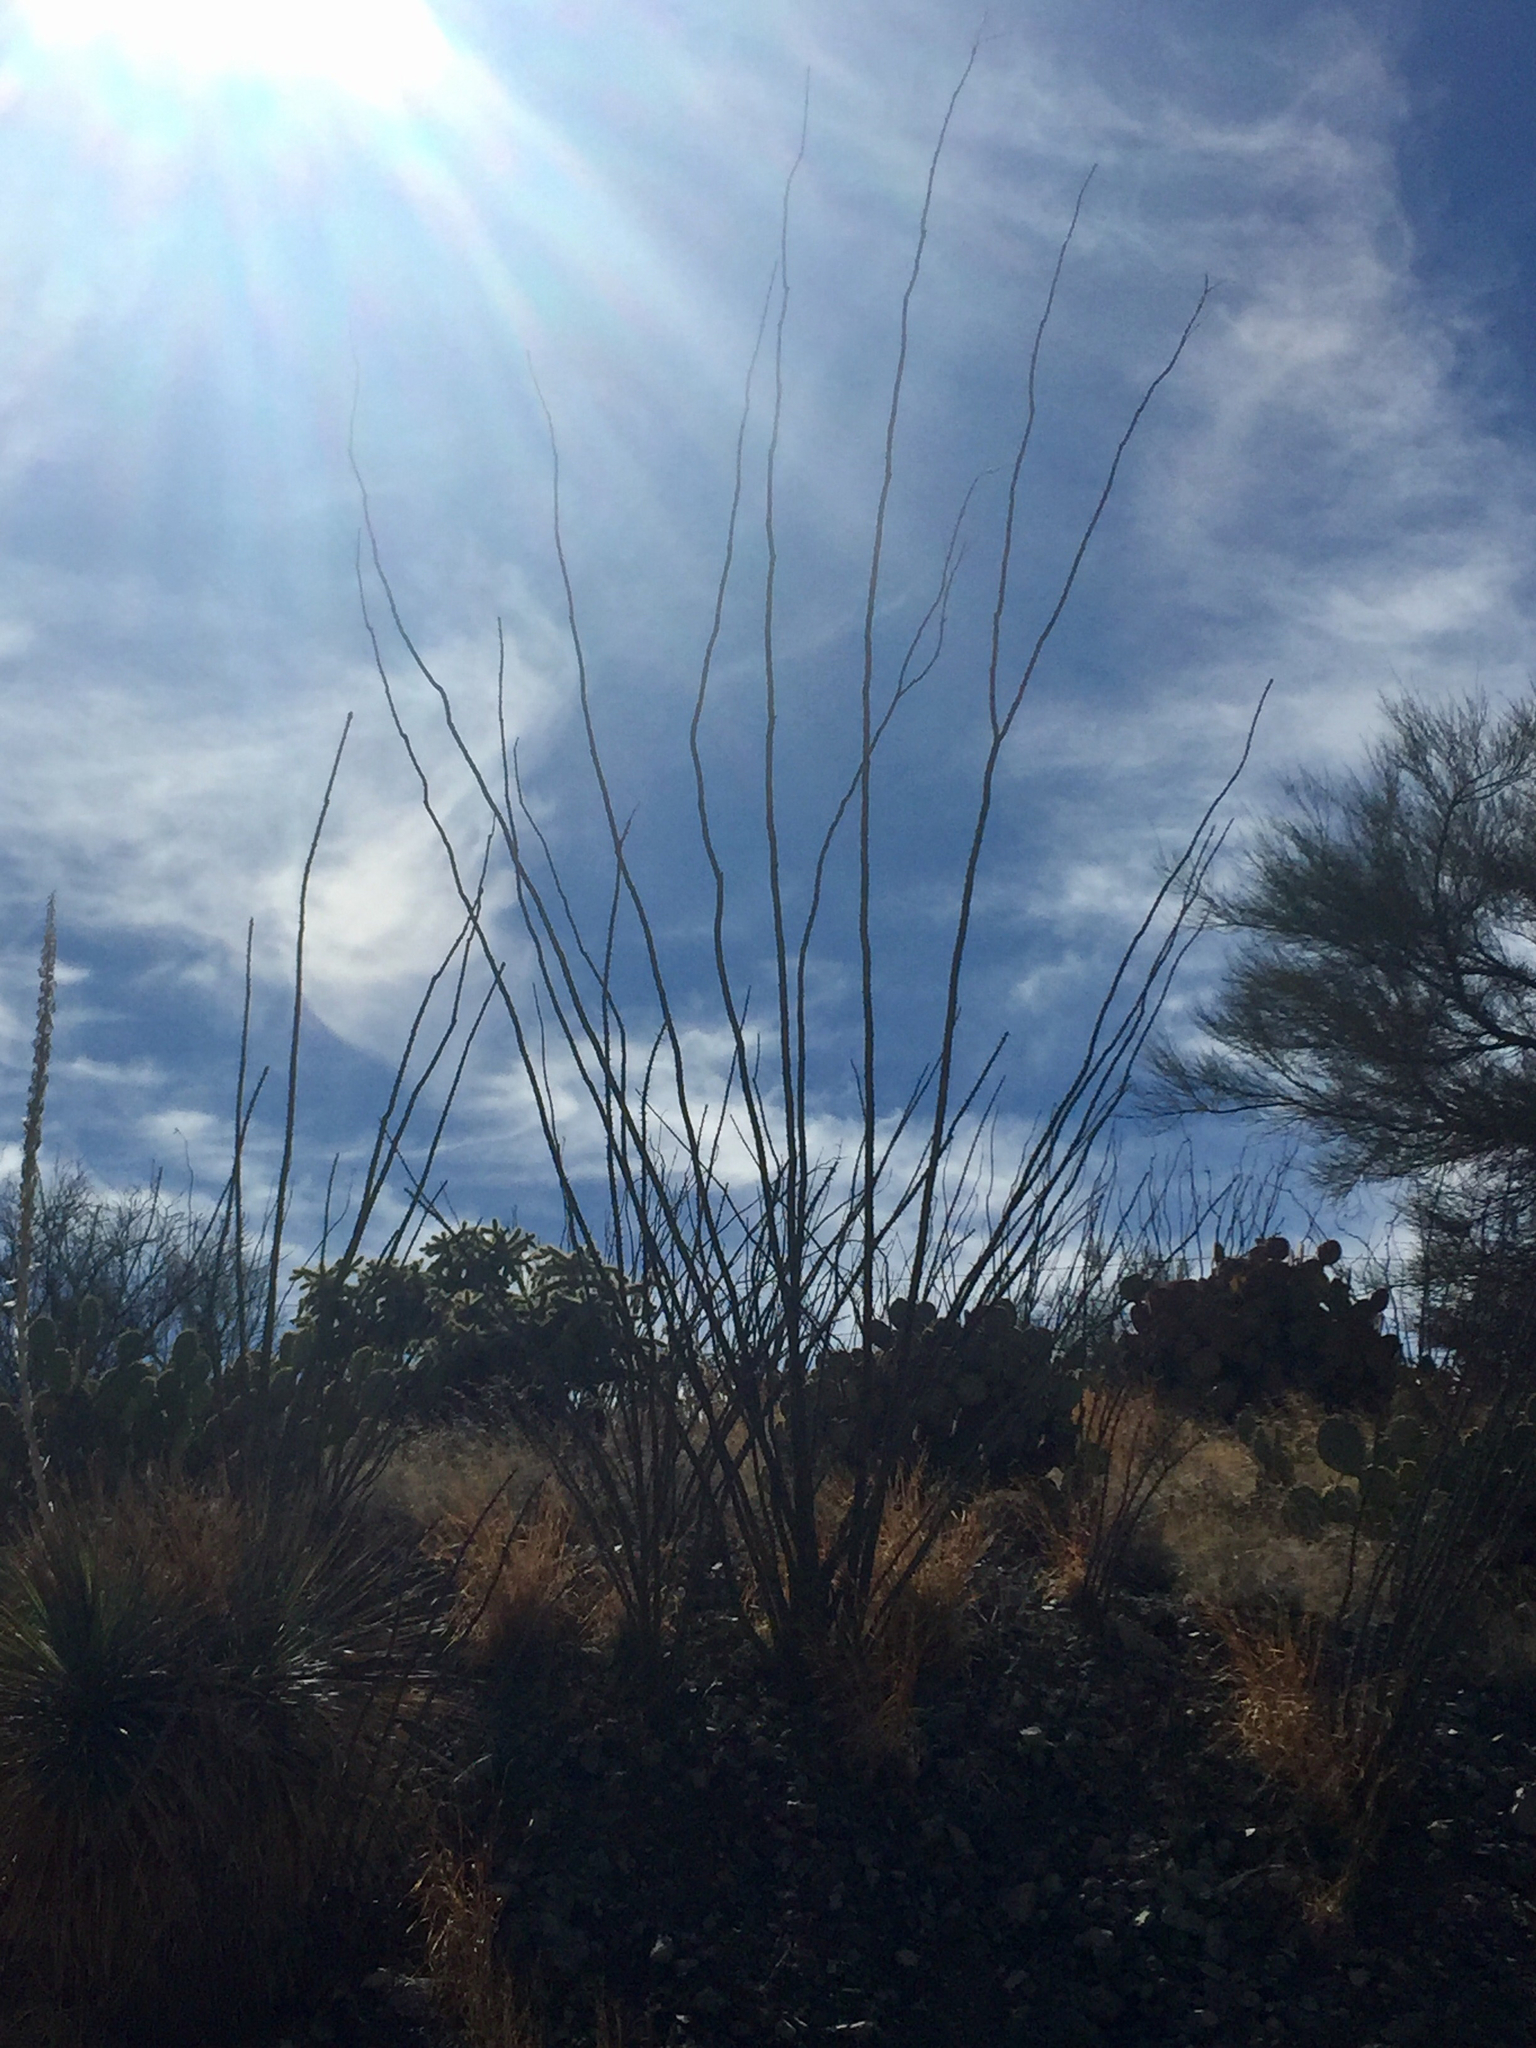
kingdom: Plantae
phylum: Tracheophyta
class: Magnoliopsida
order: Ericales
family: Fouquieriaceae
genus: Fouquieria
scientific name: Fouquieria splendens
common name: Vine-cactus
